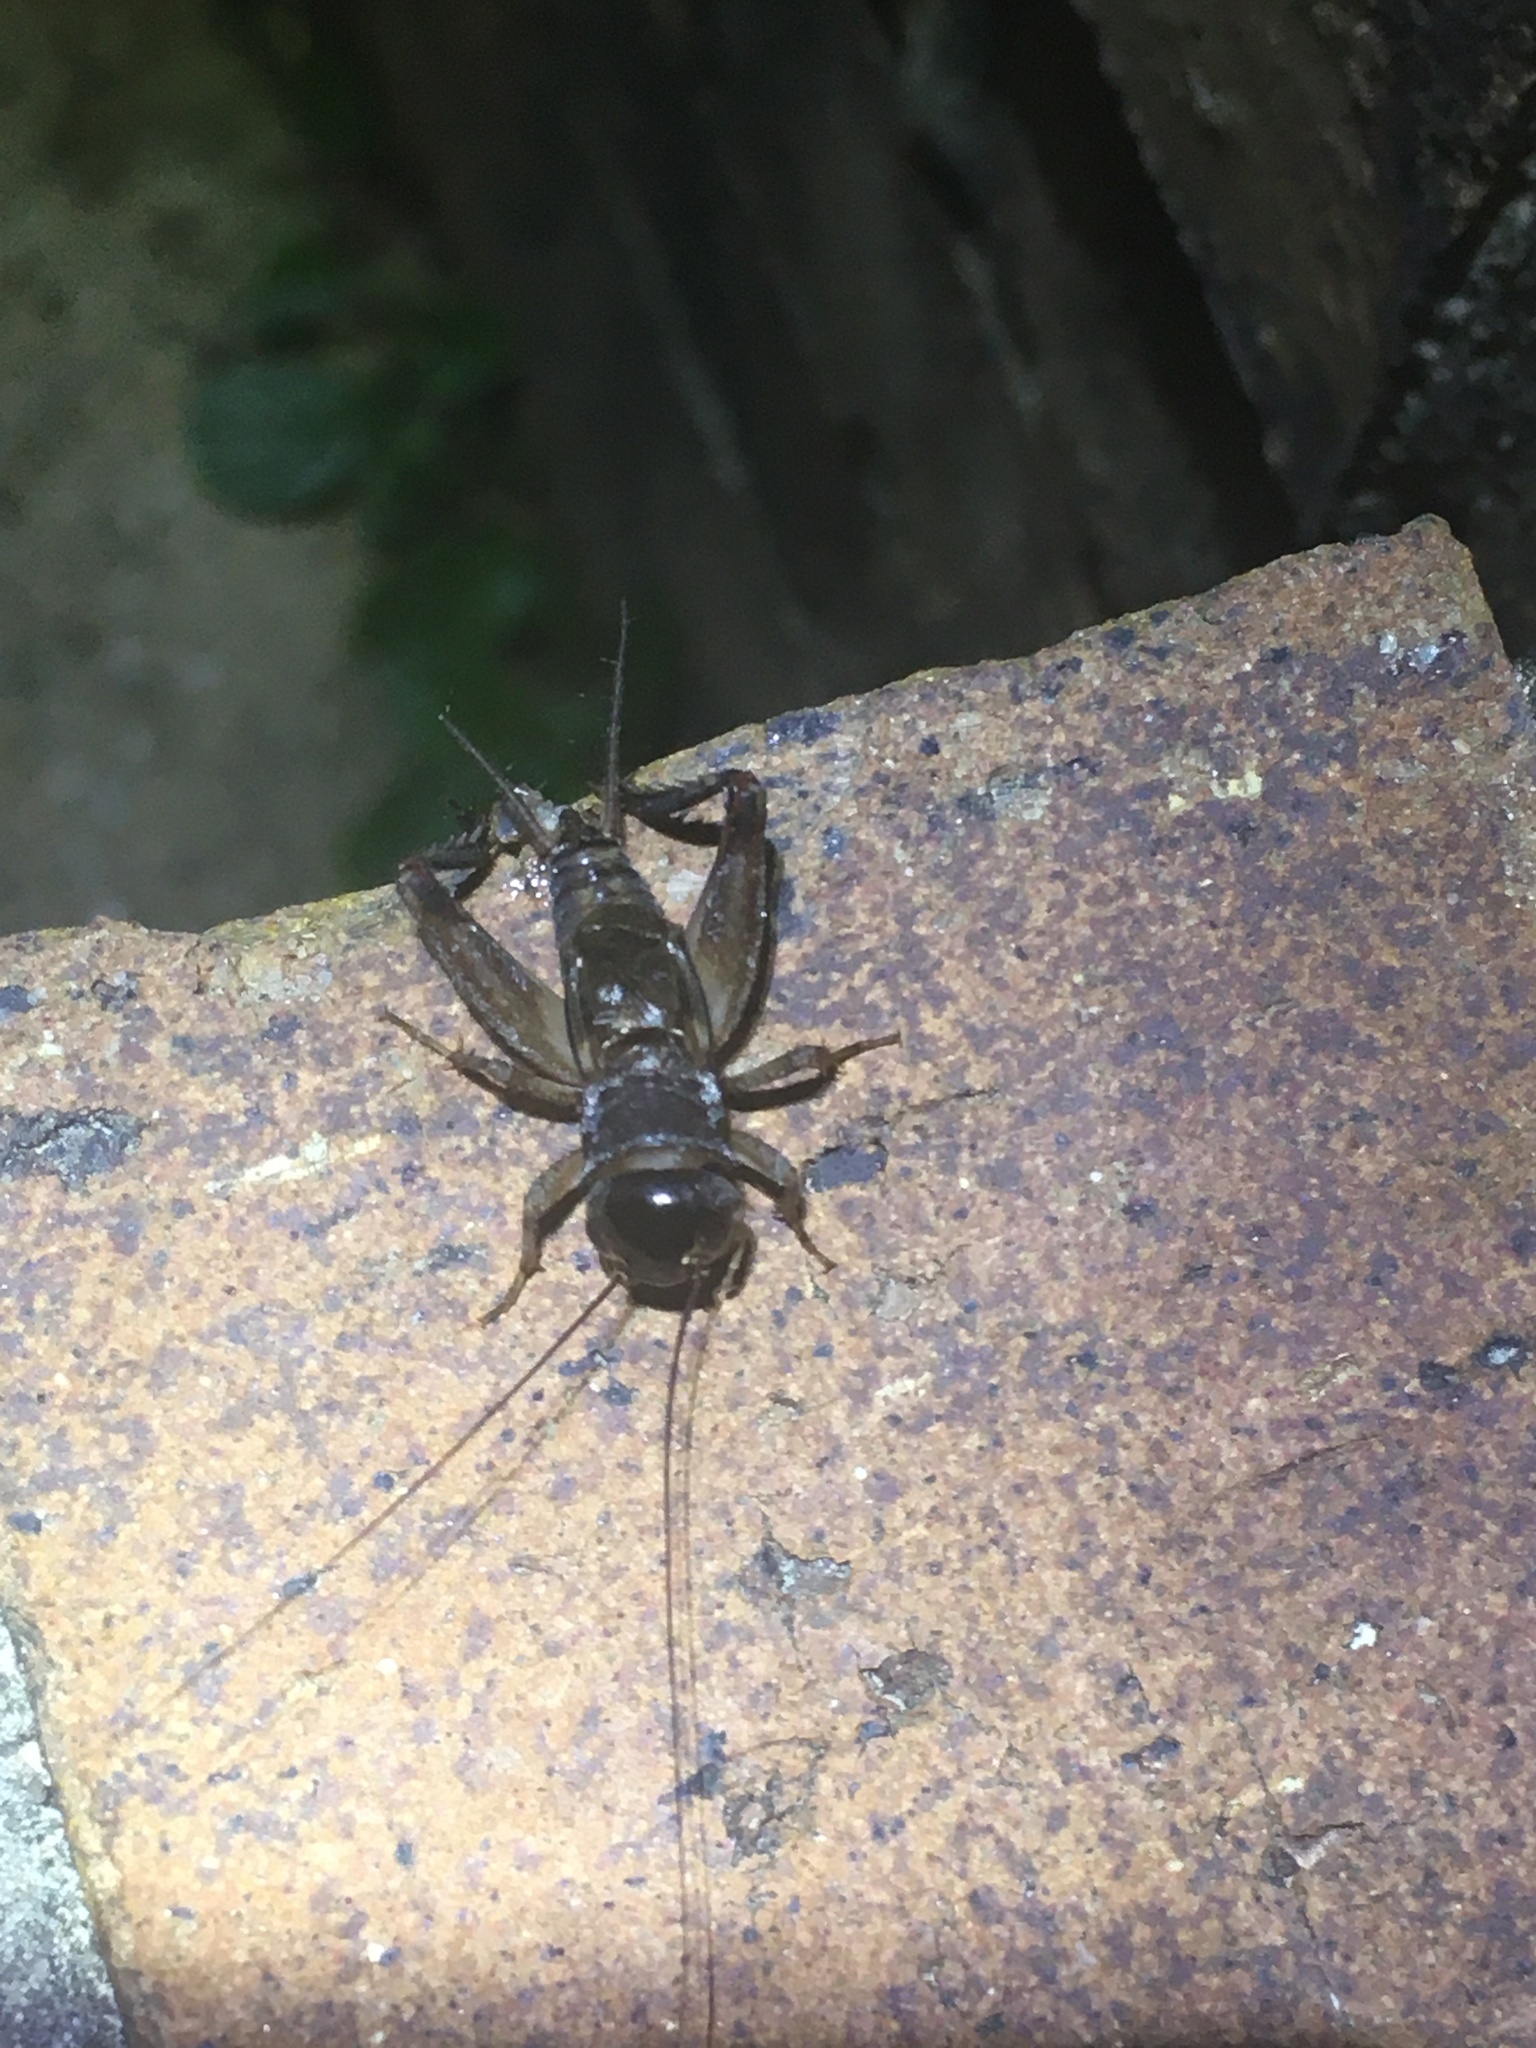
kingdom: Animalia
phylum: Arthropoda
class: Insecta
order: Orthoptera
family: Gryllidae
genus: Miogryllus
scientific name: Miogryllus verticalis
